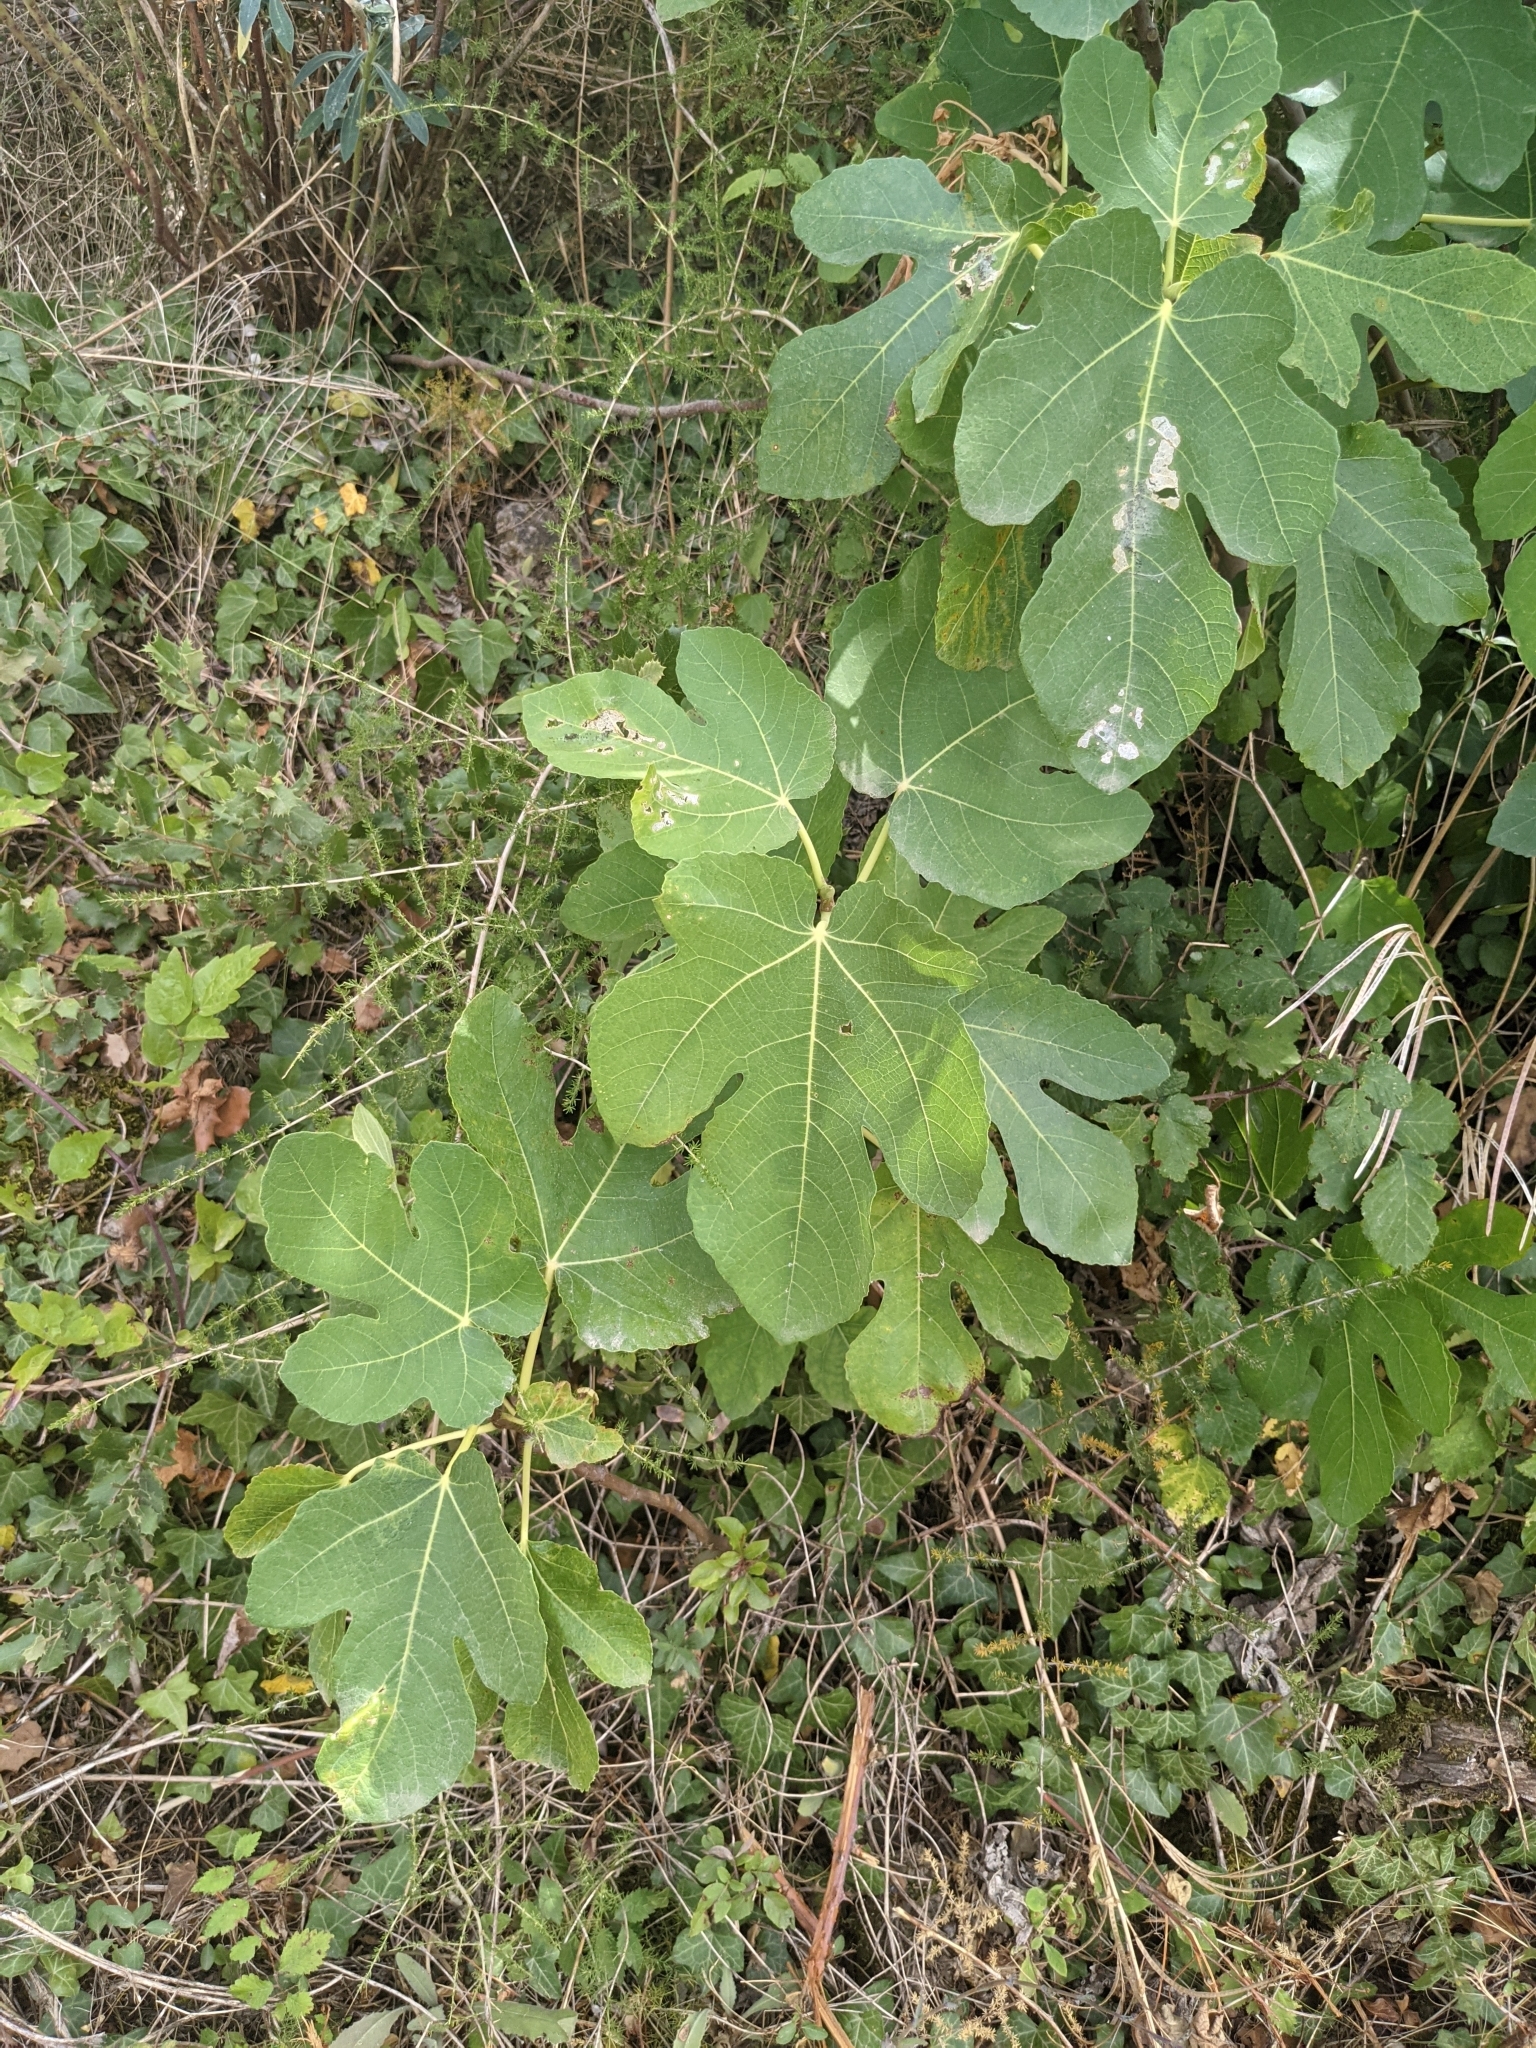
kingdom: Plantae
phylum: Tracheophyta
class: Magnoliopsida
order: Rosales
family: Moraceae
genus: Ficus
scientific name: Ficus carica
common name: Fig
